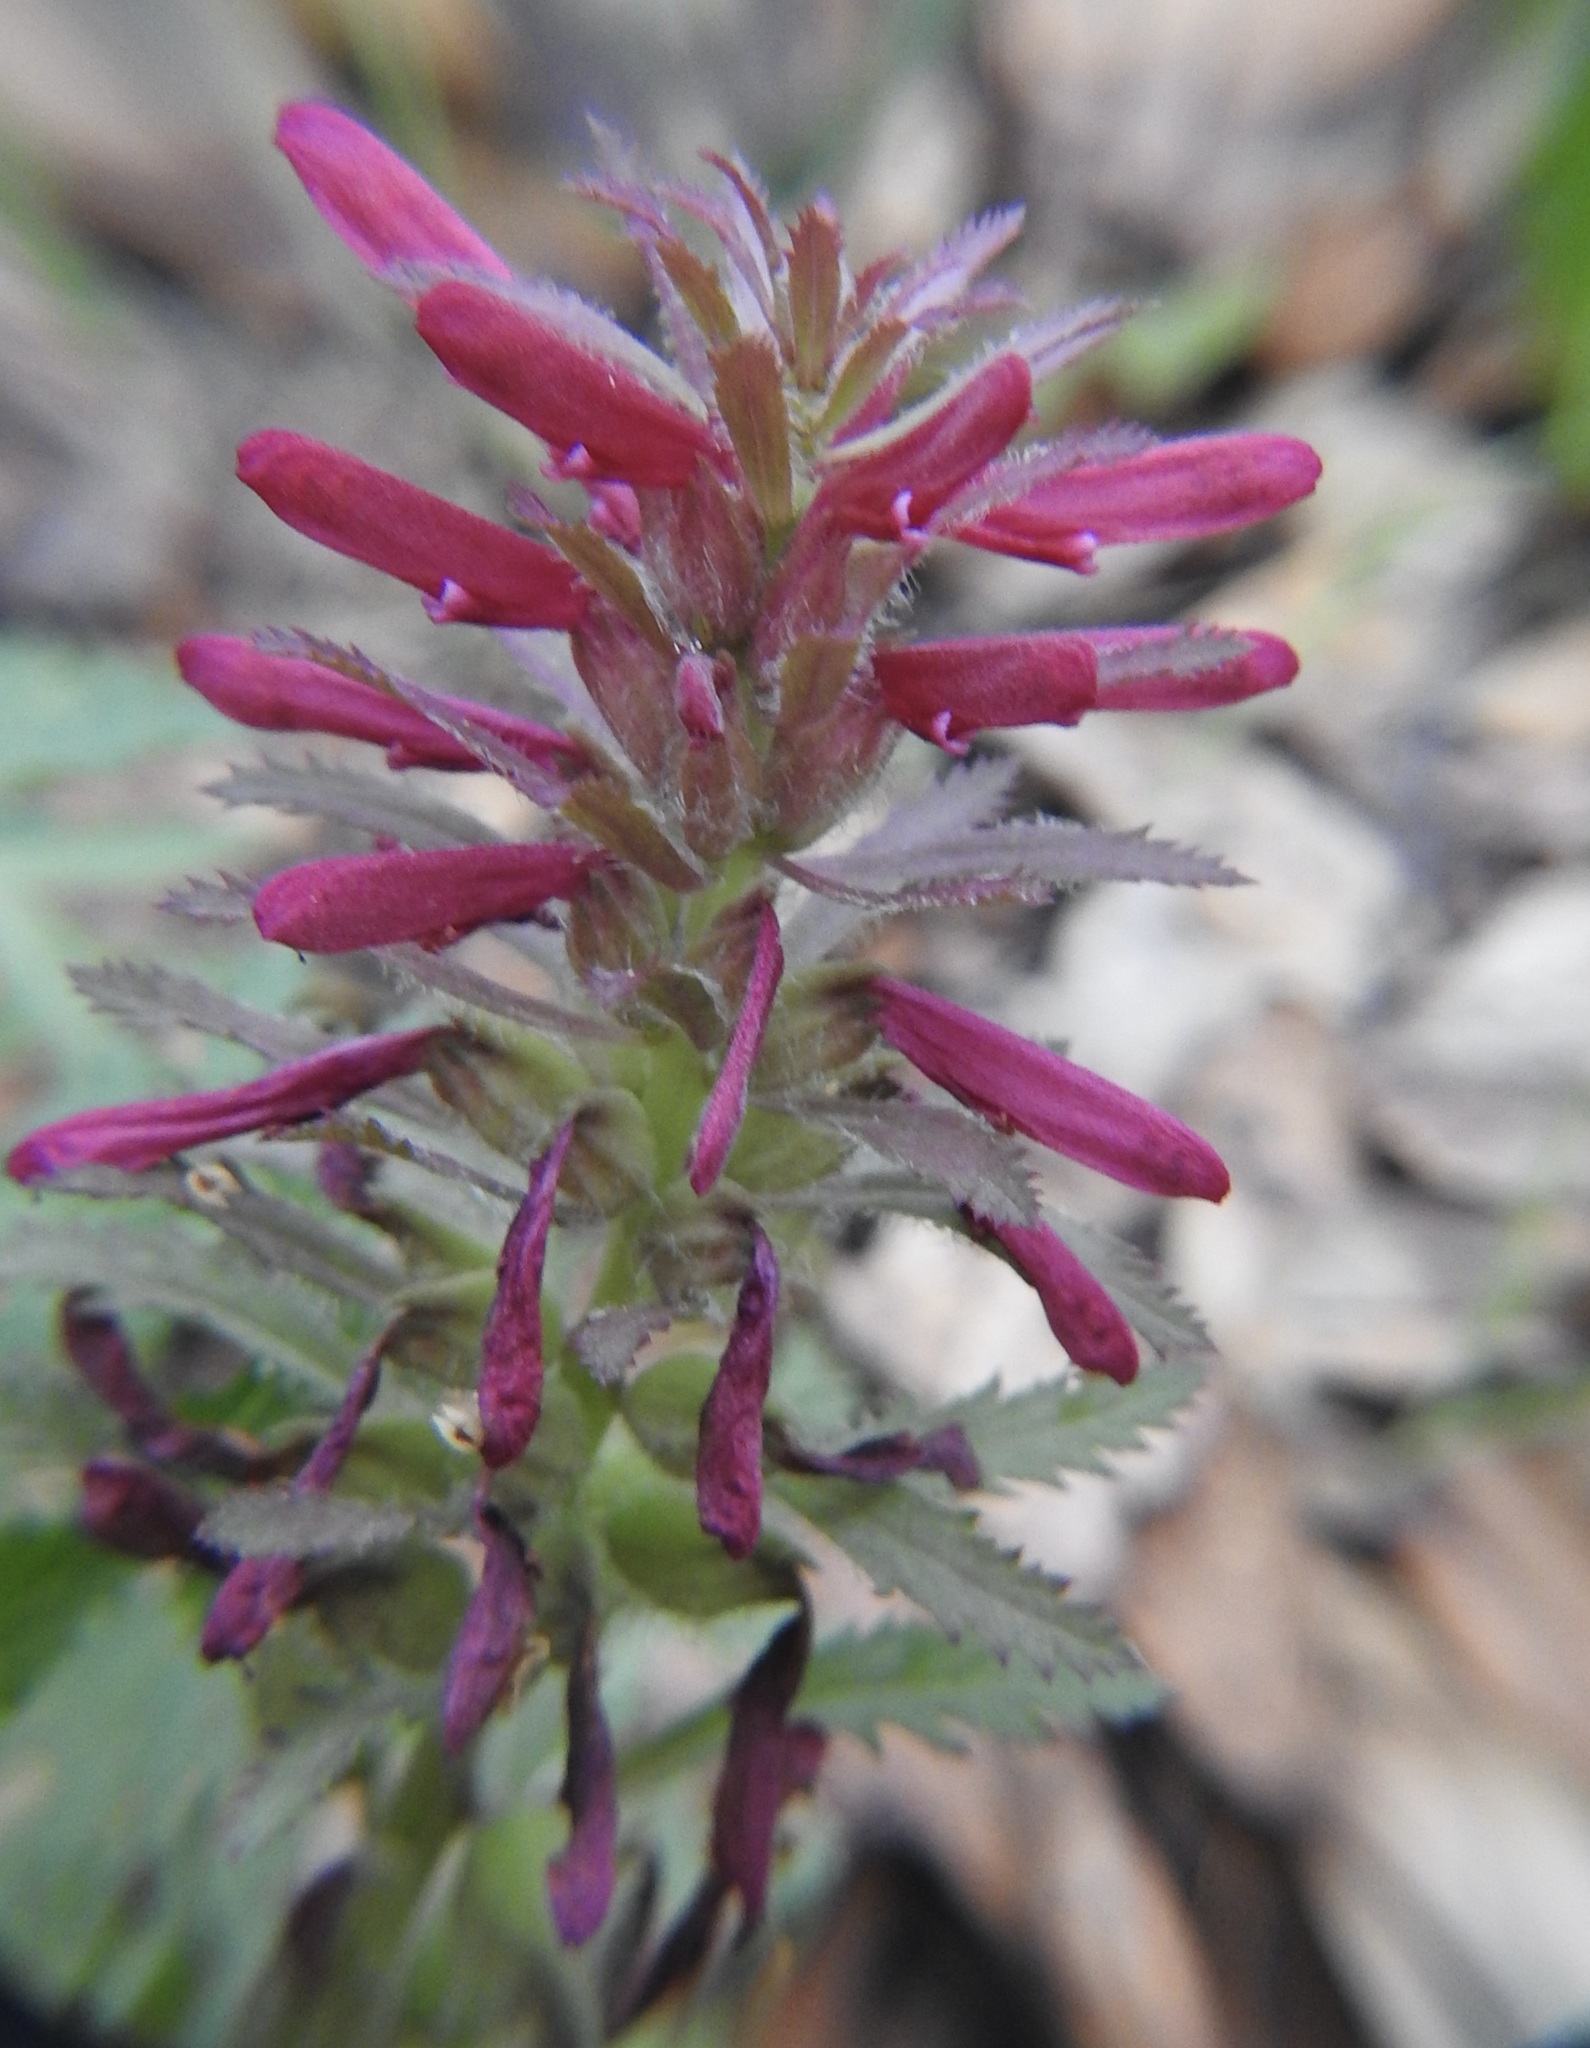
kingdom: Plantae
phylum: Tracheophyta
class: Magnoliopsida
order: Lamiales
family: Orobanchaceae
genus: Pedicularis
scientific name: Pedicularis densiflora
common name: Indian warrior
